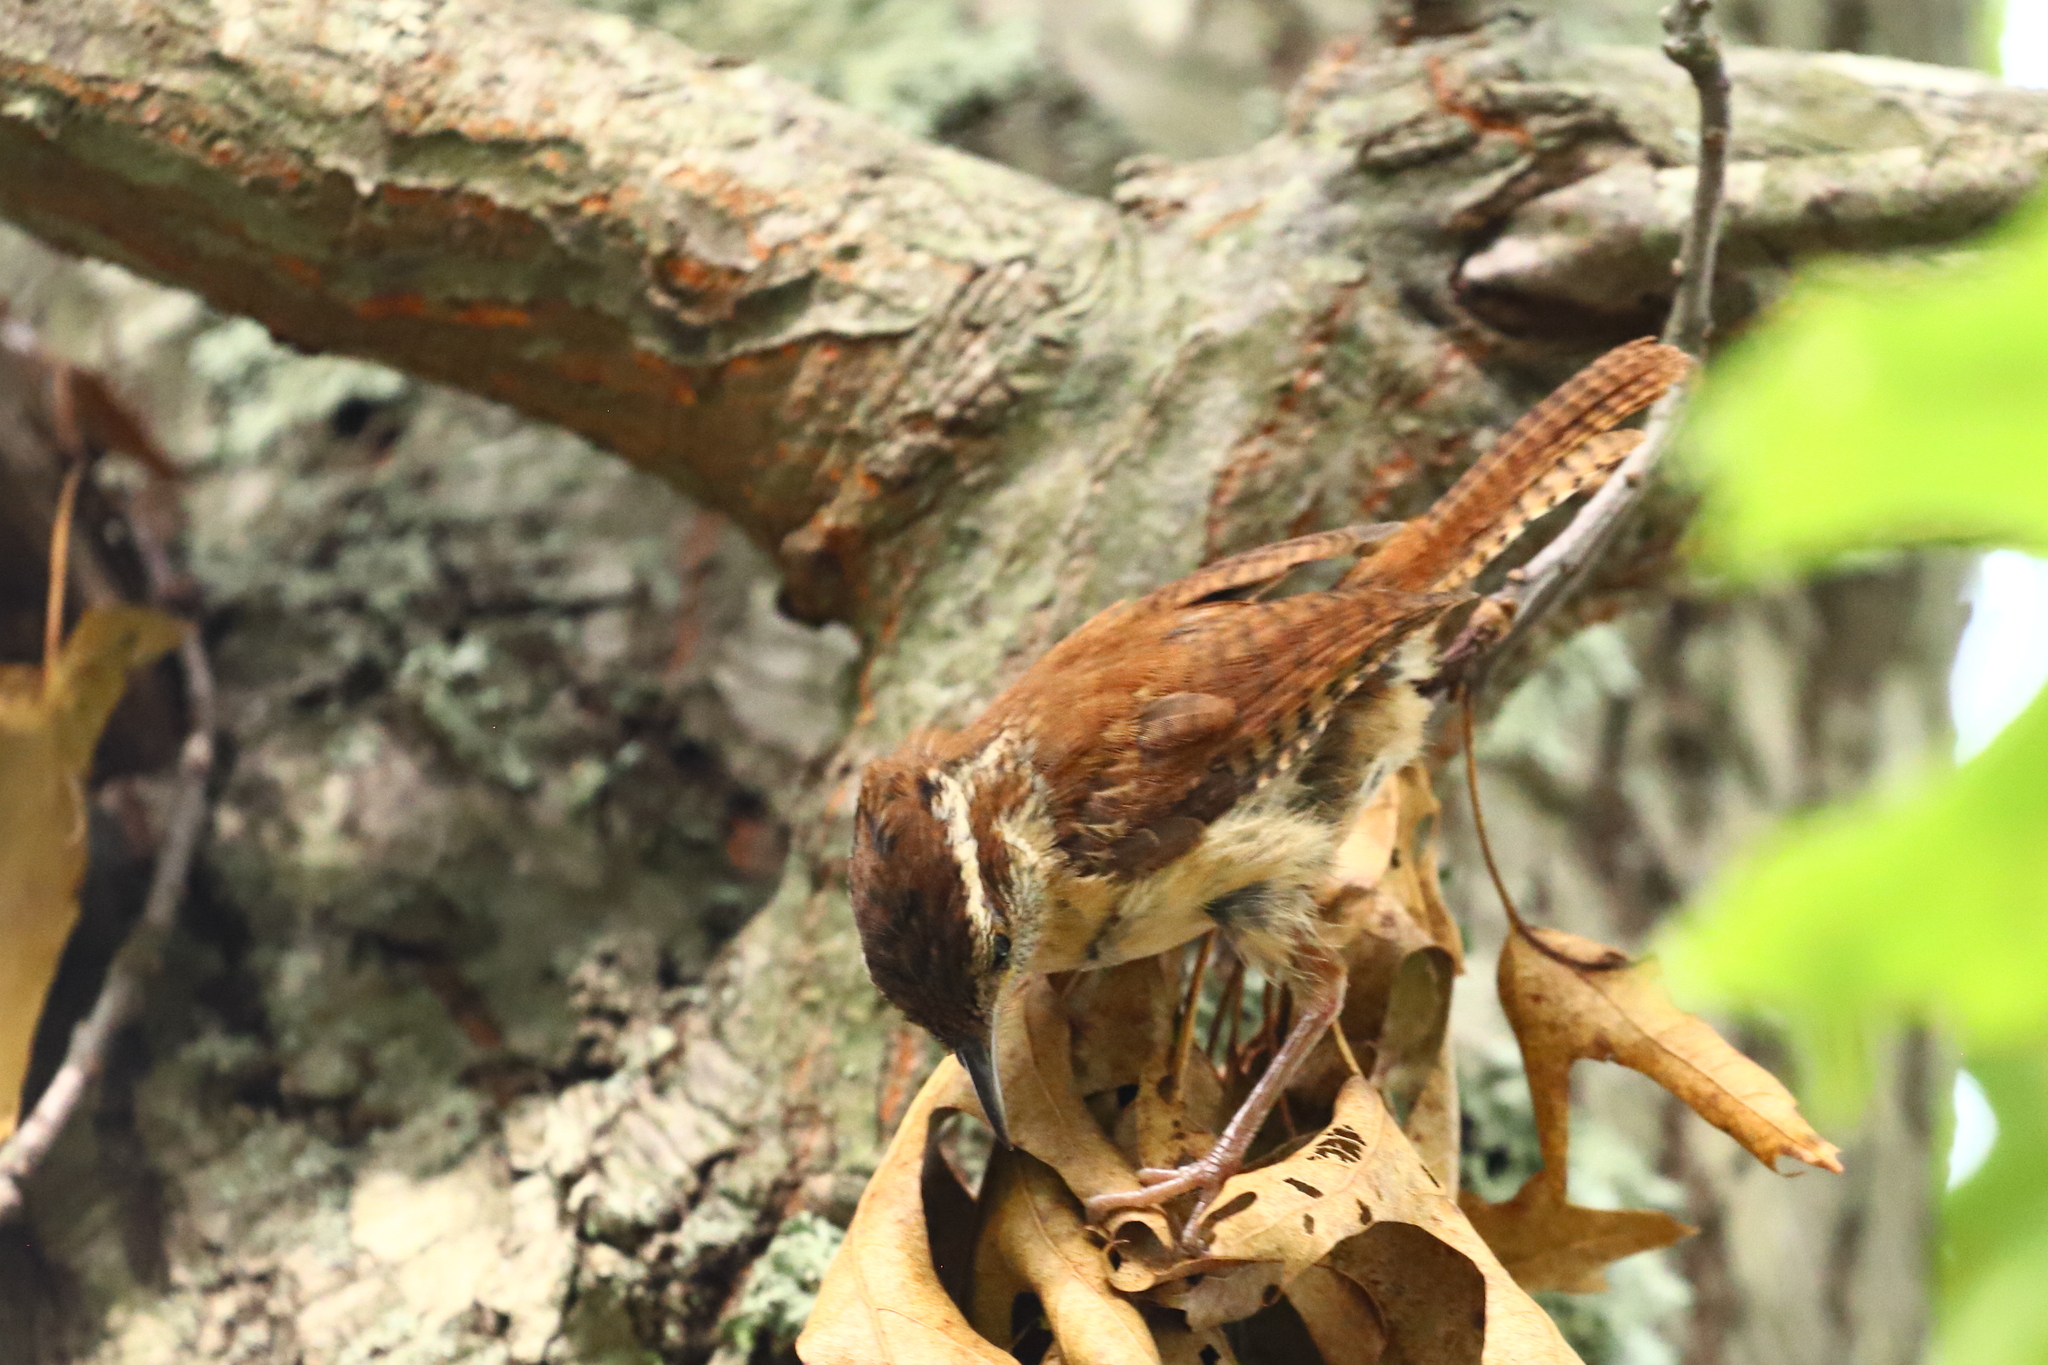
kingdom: Animalia
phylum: Chordata
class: Aves
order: Passeriformes
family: Troglodytidae
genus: Thryothorus
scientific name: Thryothorus ludovicianus
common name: Carolina wren
